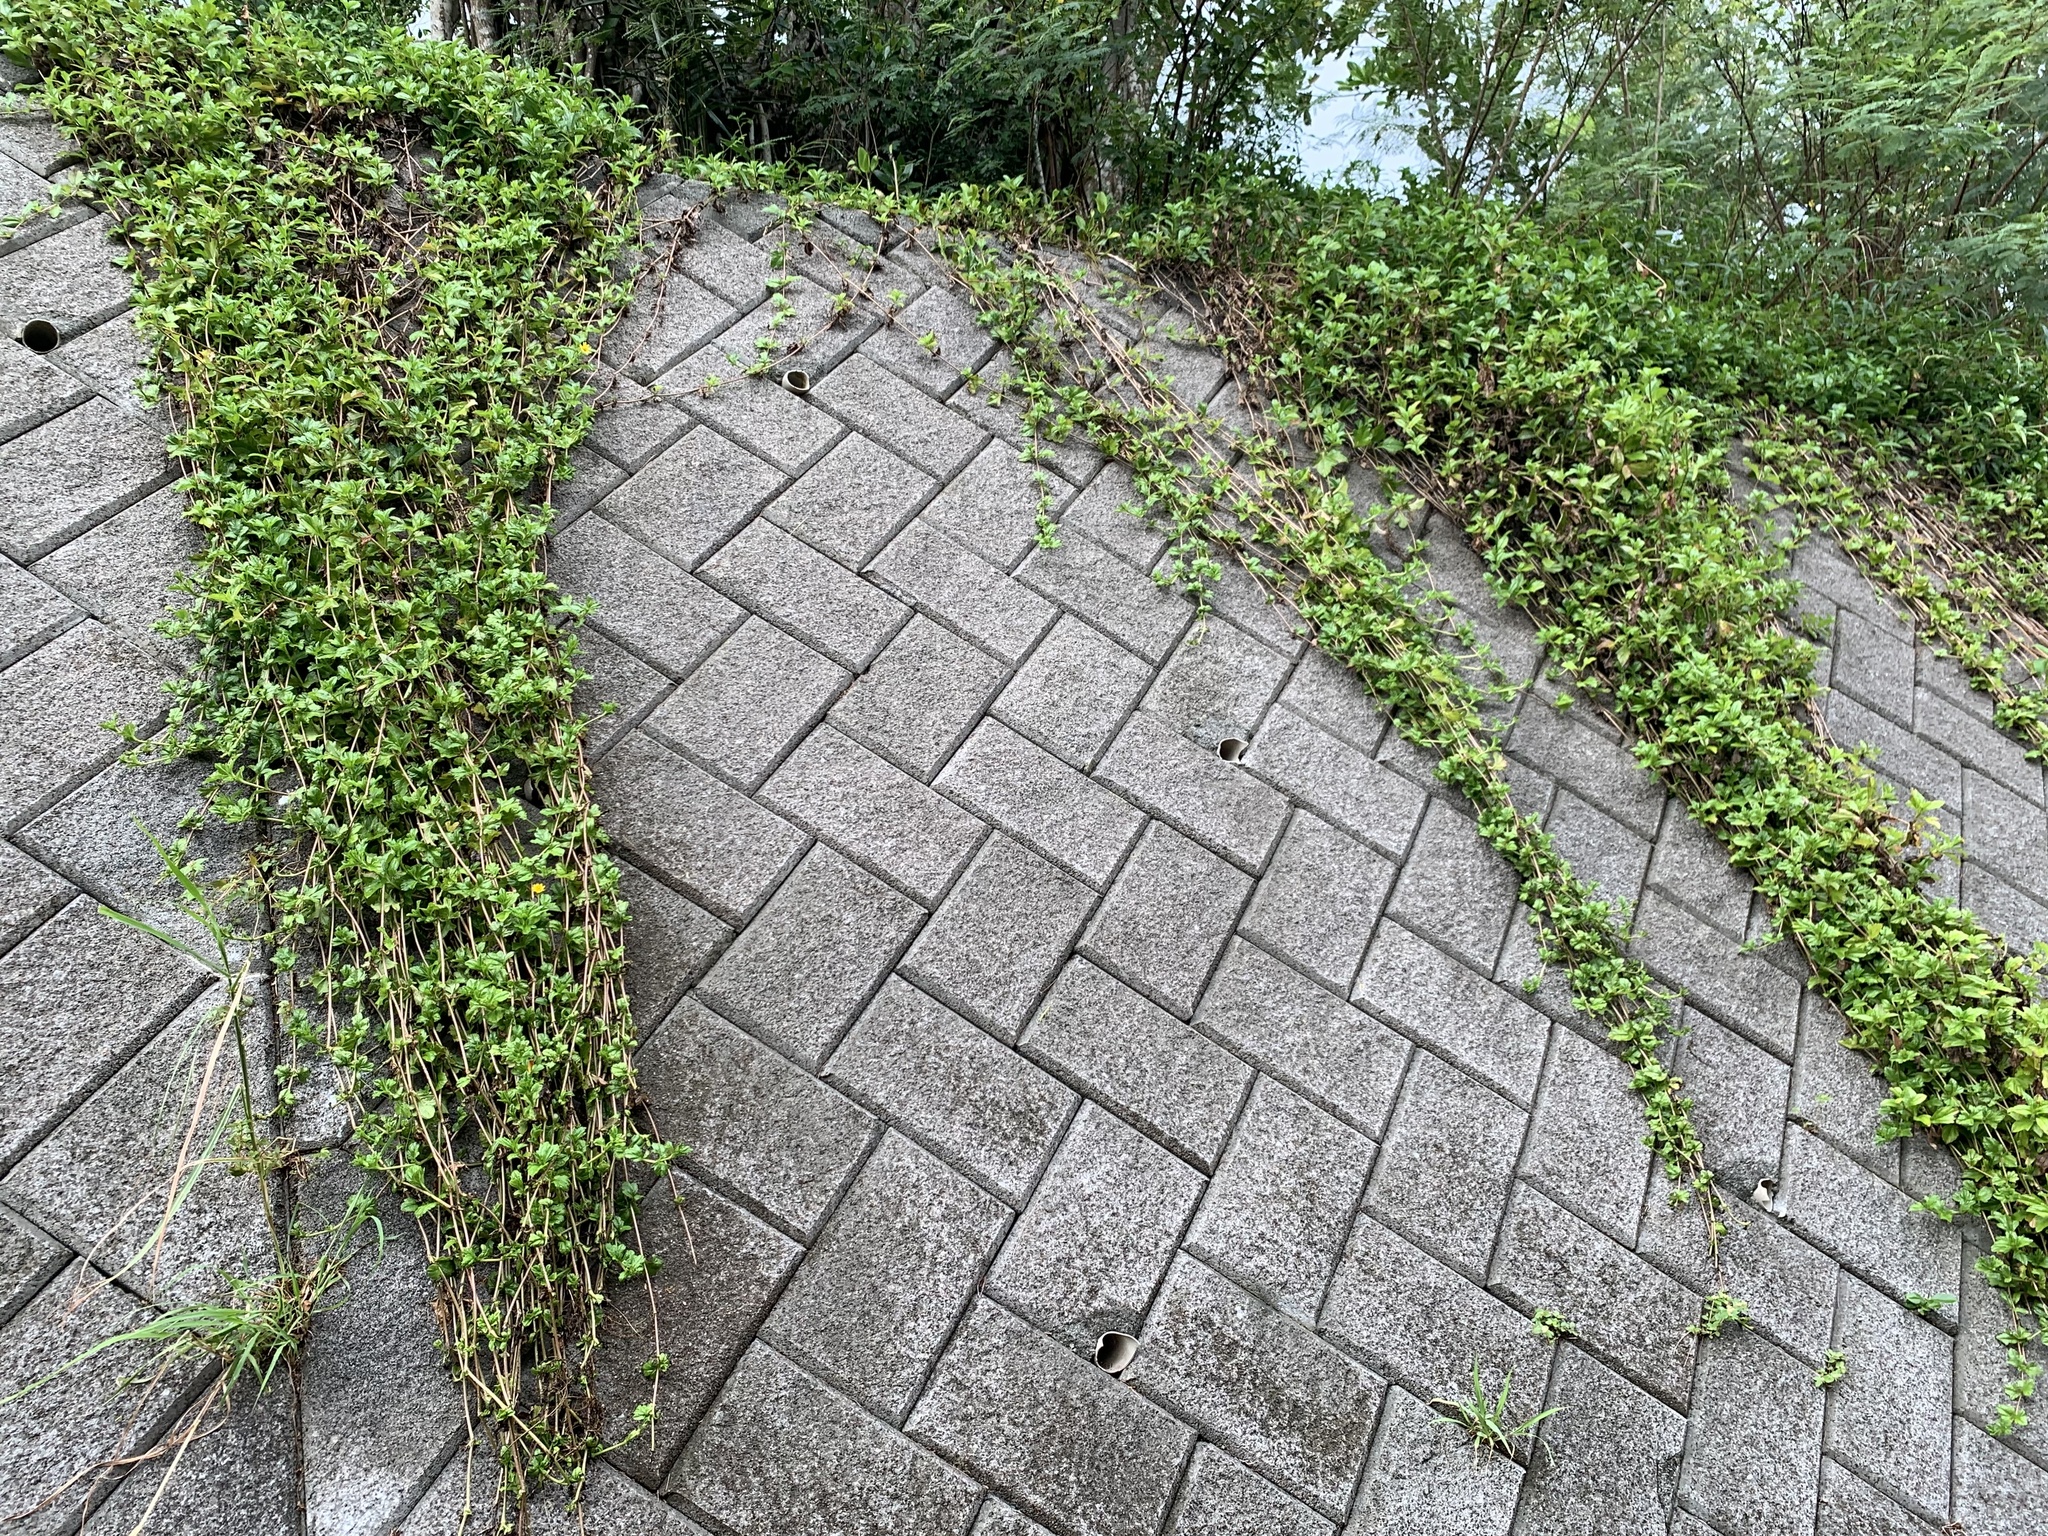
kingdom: Plantae
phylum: Tracheophyta
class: Magnoliopsida
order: Asterales
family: Asteraceae
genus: Sphagneticola
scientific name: Sphagneticola trilobata
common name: Bay biscayne creeping-oxeye
